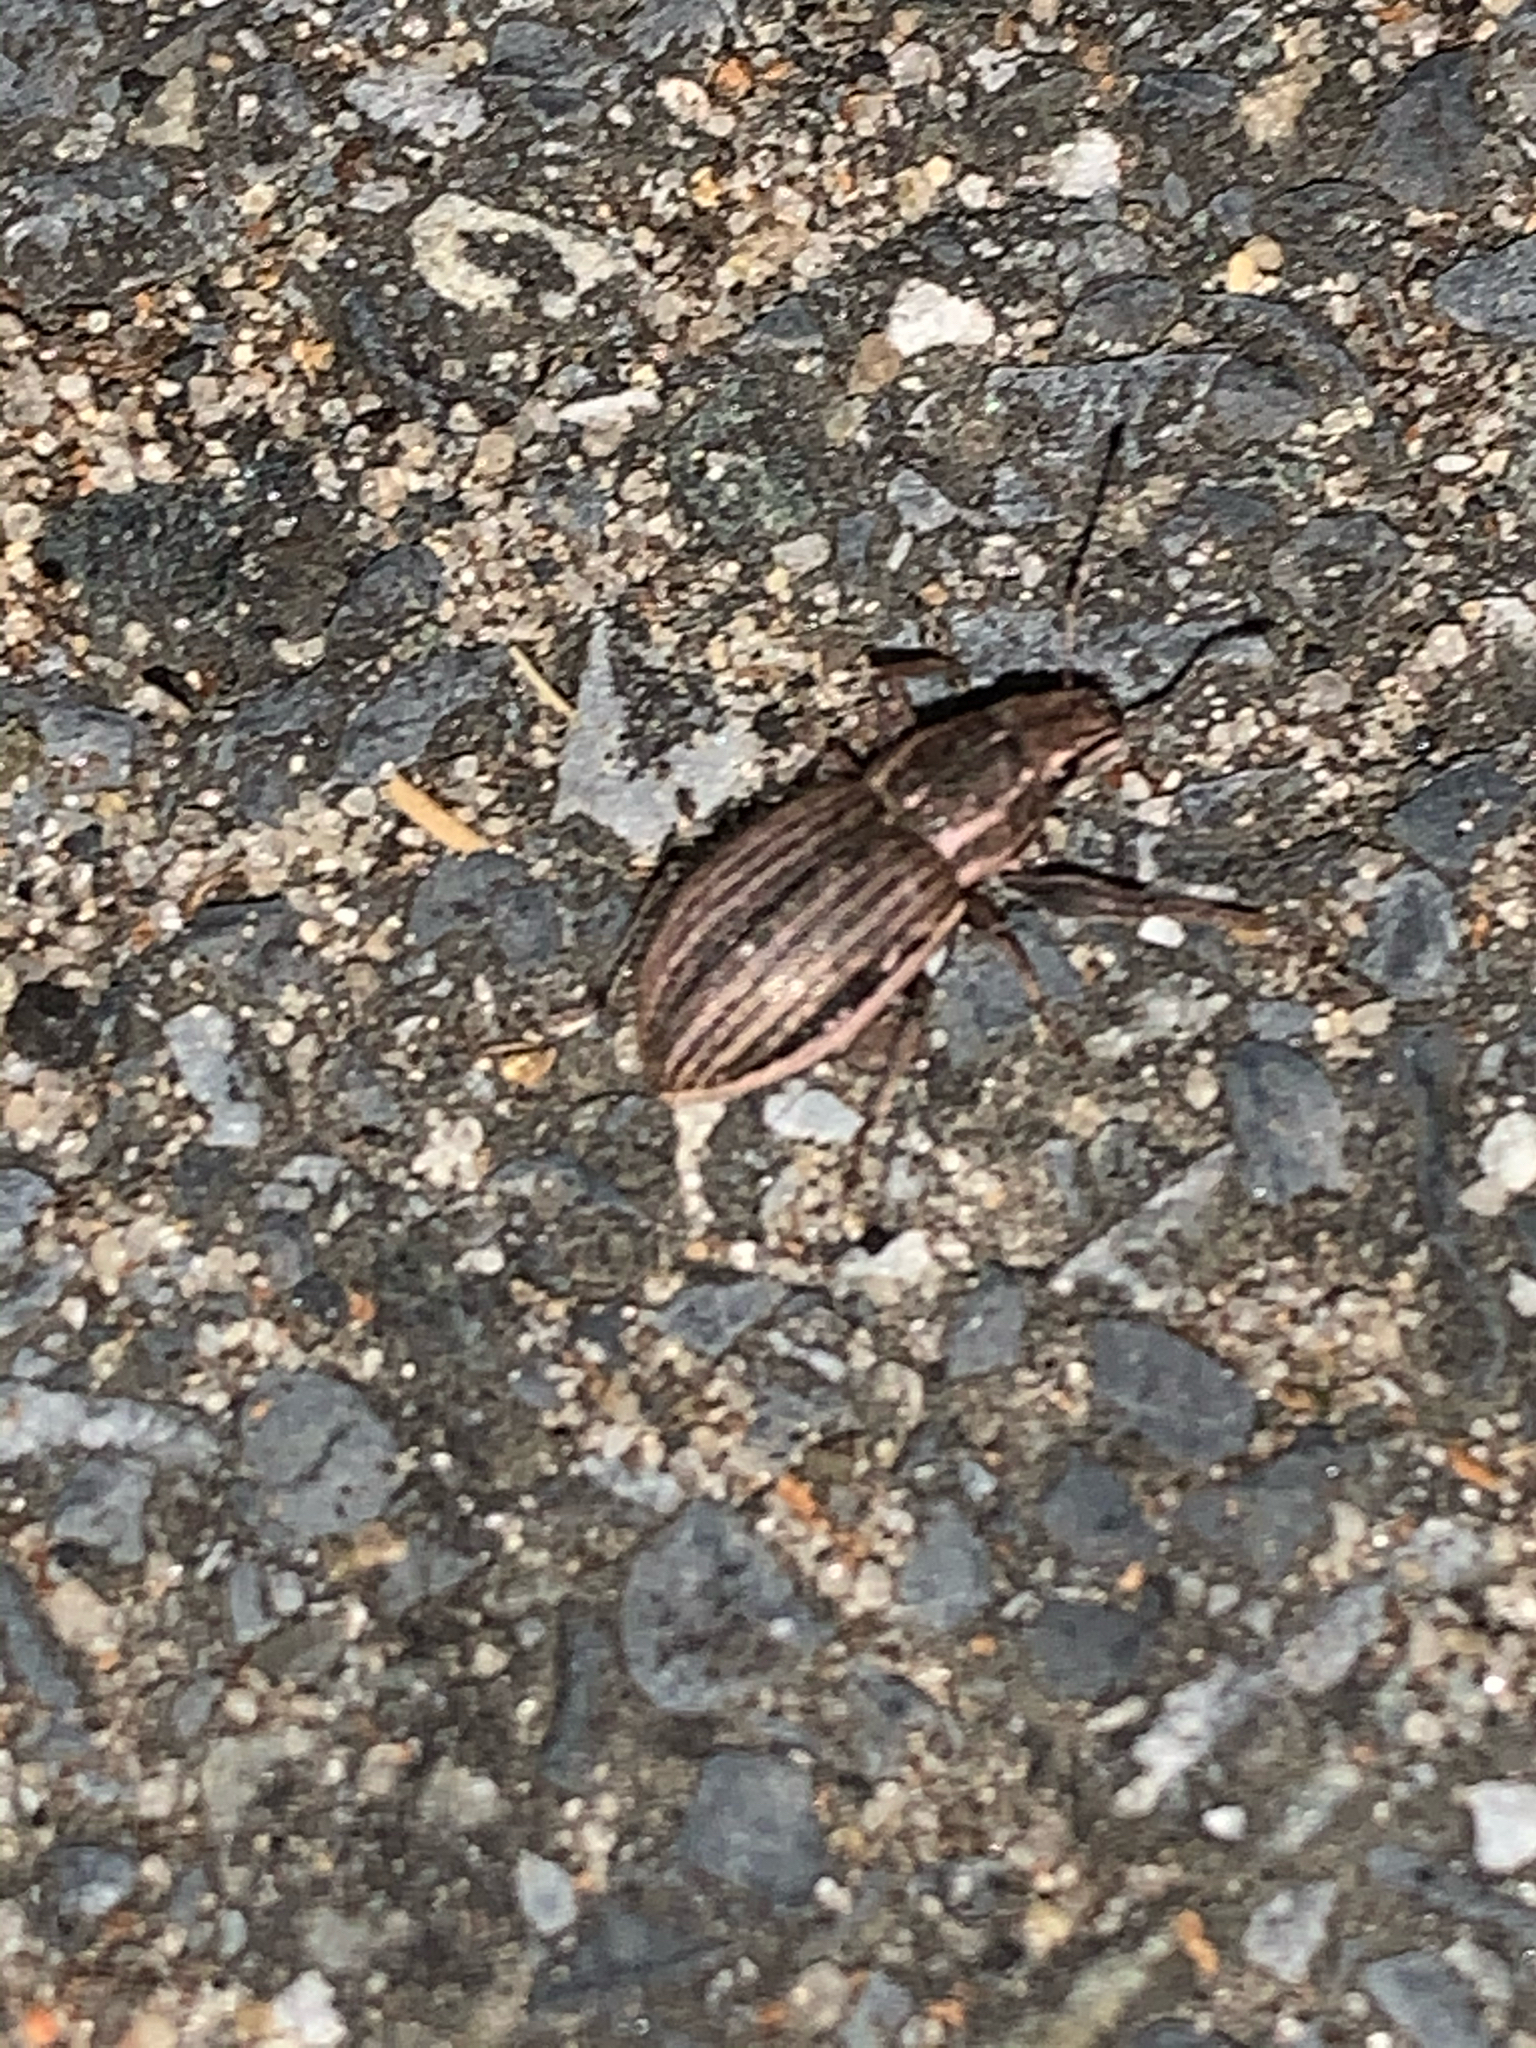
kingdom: Animalia
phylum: Arthropoda
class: Insecta
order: Coleoptera
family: Curculionidae
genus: Naupactus
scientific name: Naupactus leucoloma
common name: Whitefringed beetle
